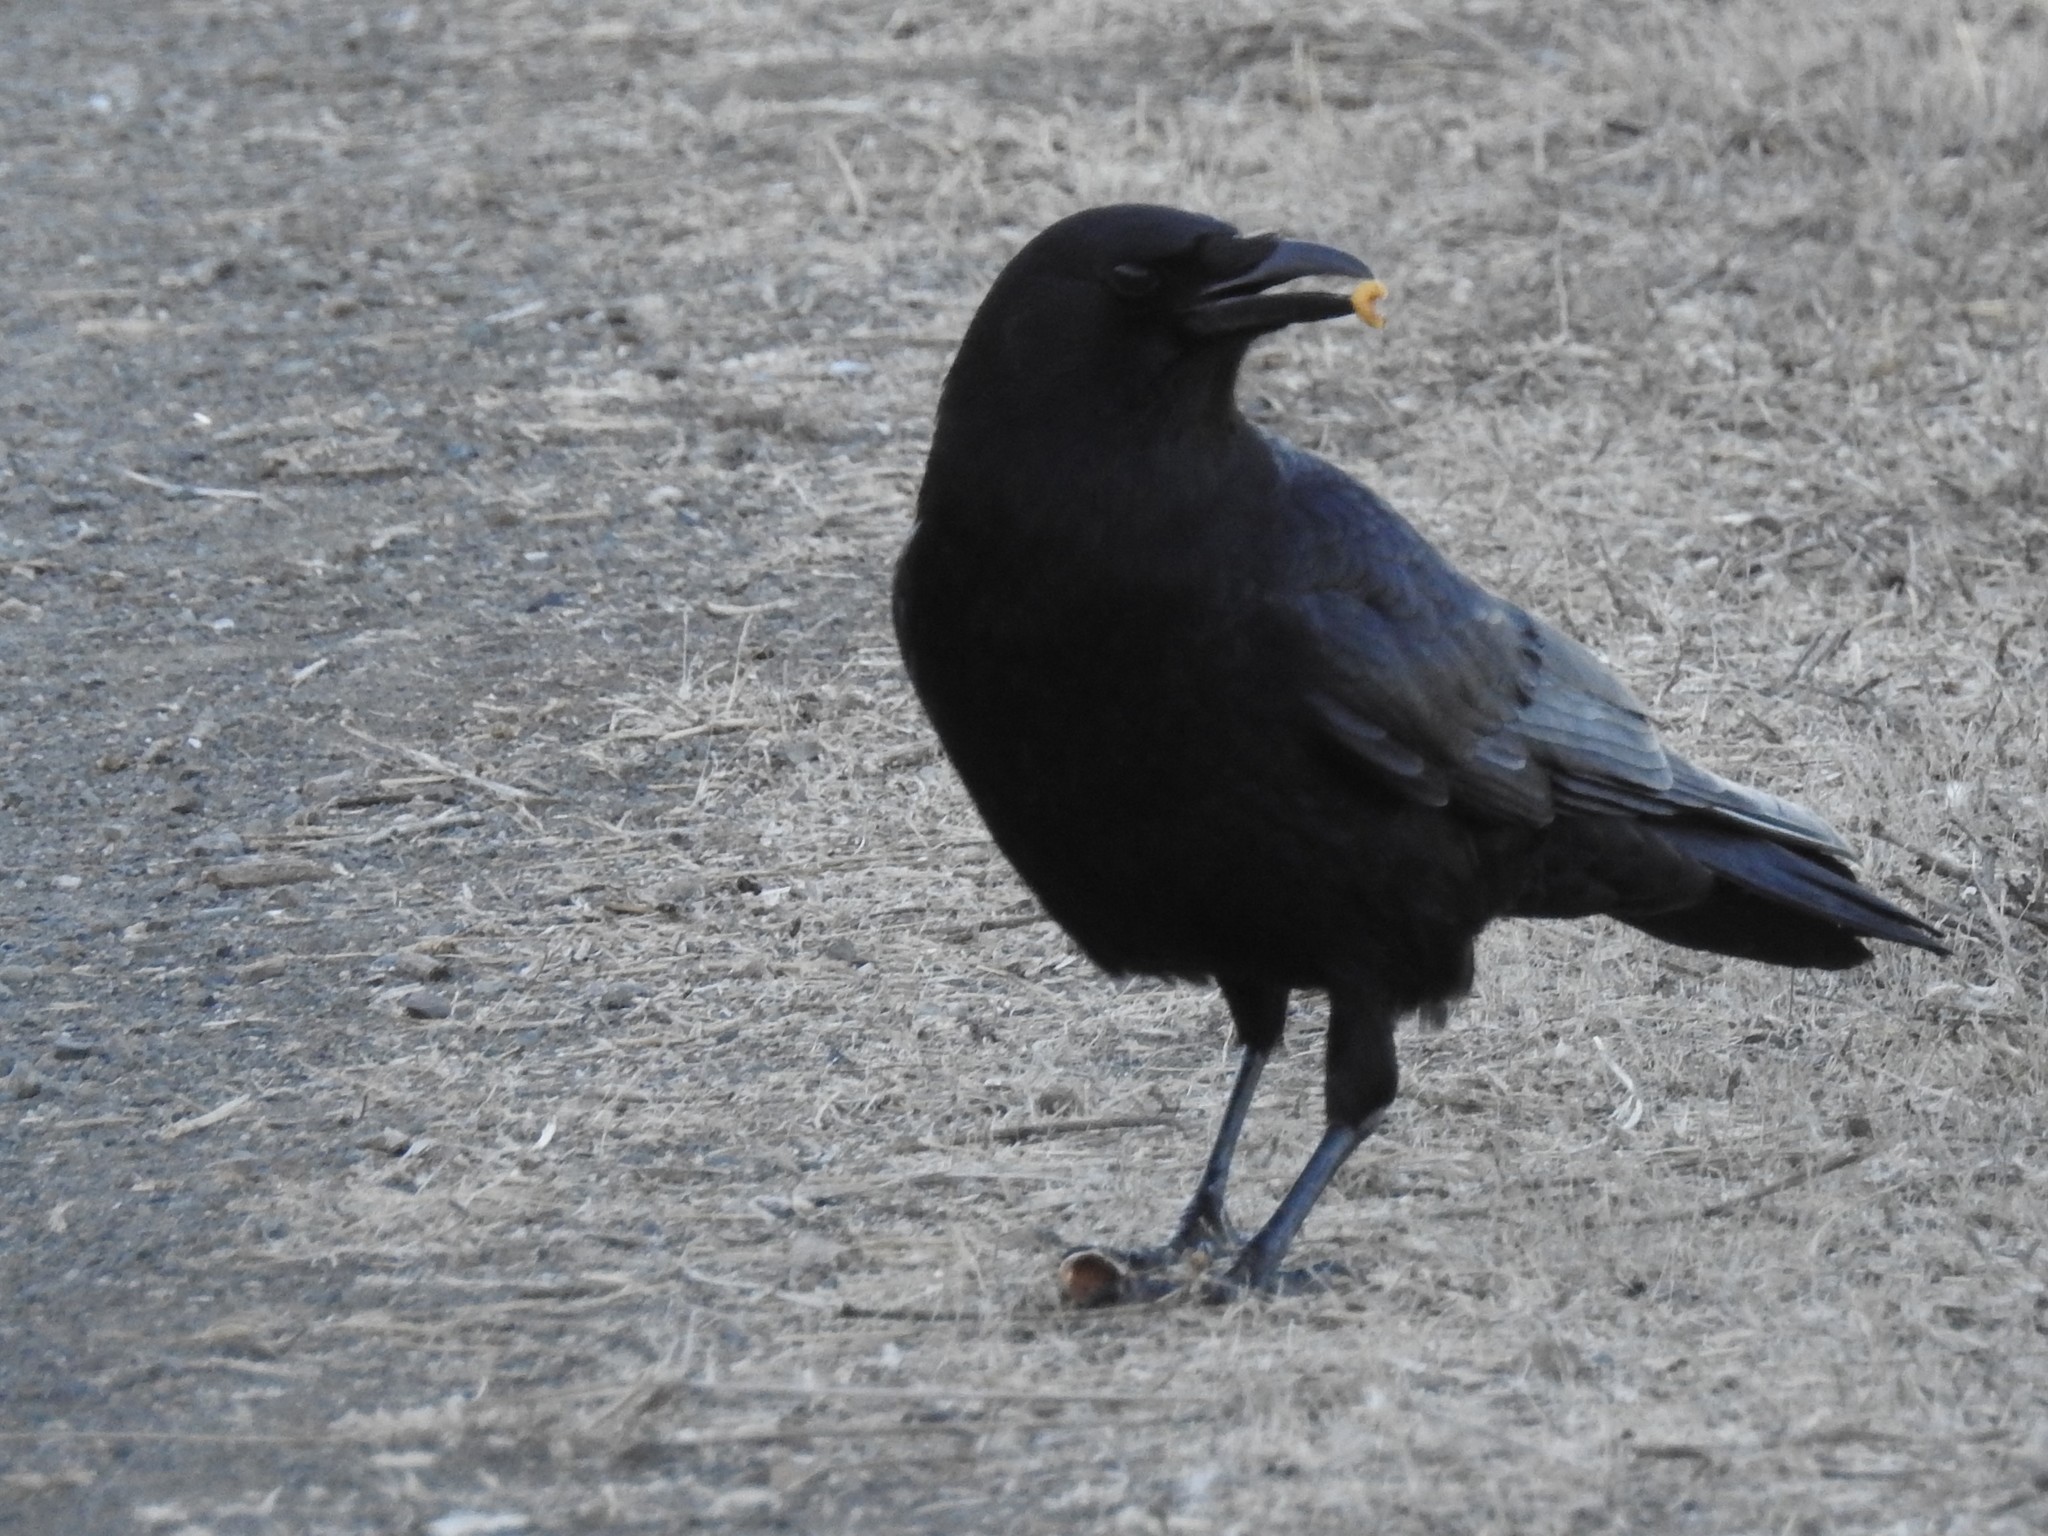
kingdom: Animalia
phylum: Chordata
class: Aves
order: Passeriformes
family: Corvidae
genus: Corvus
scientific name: Corvus brachyrhynchos
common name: American crow
